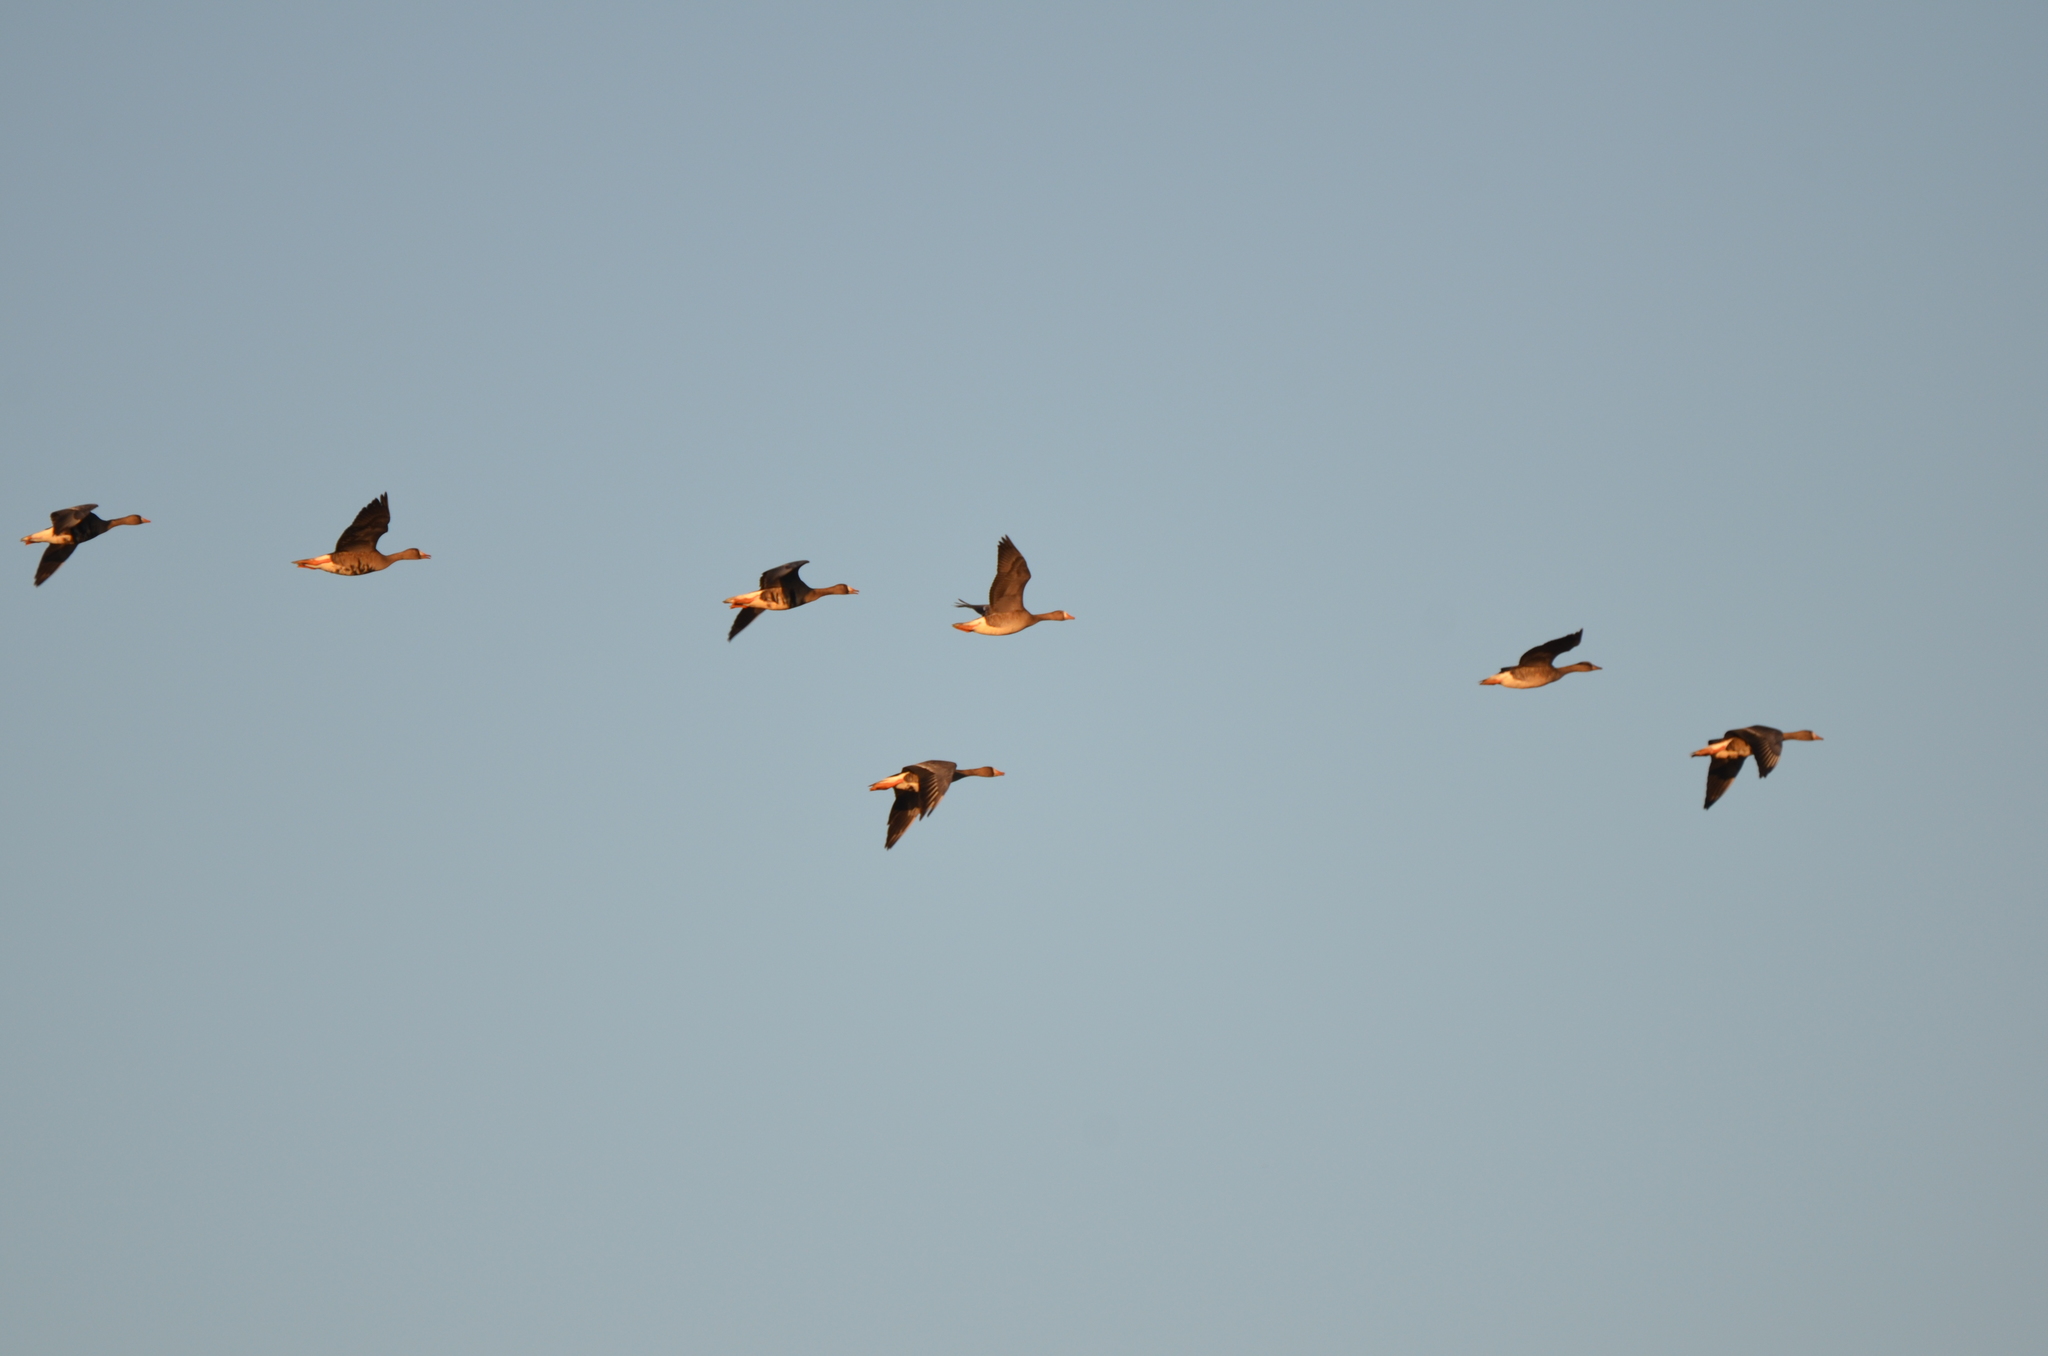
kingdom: Animalia
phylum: Chordata
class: Aves
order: Anseriformes
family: Anatidae
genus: Anser
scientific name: Anser albifrons
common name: Greater white-fronted goose
